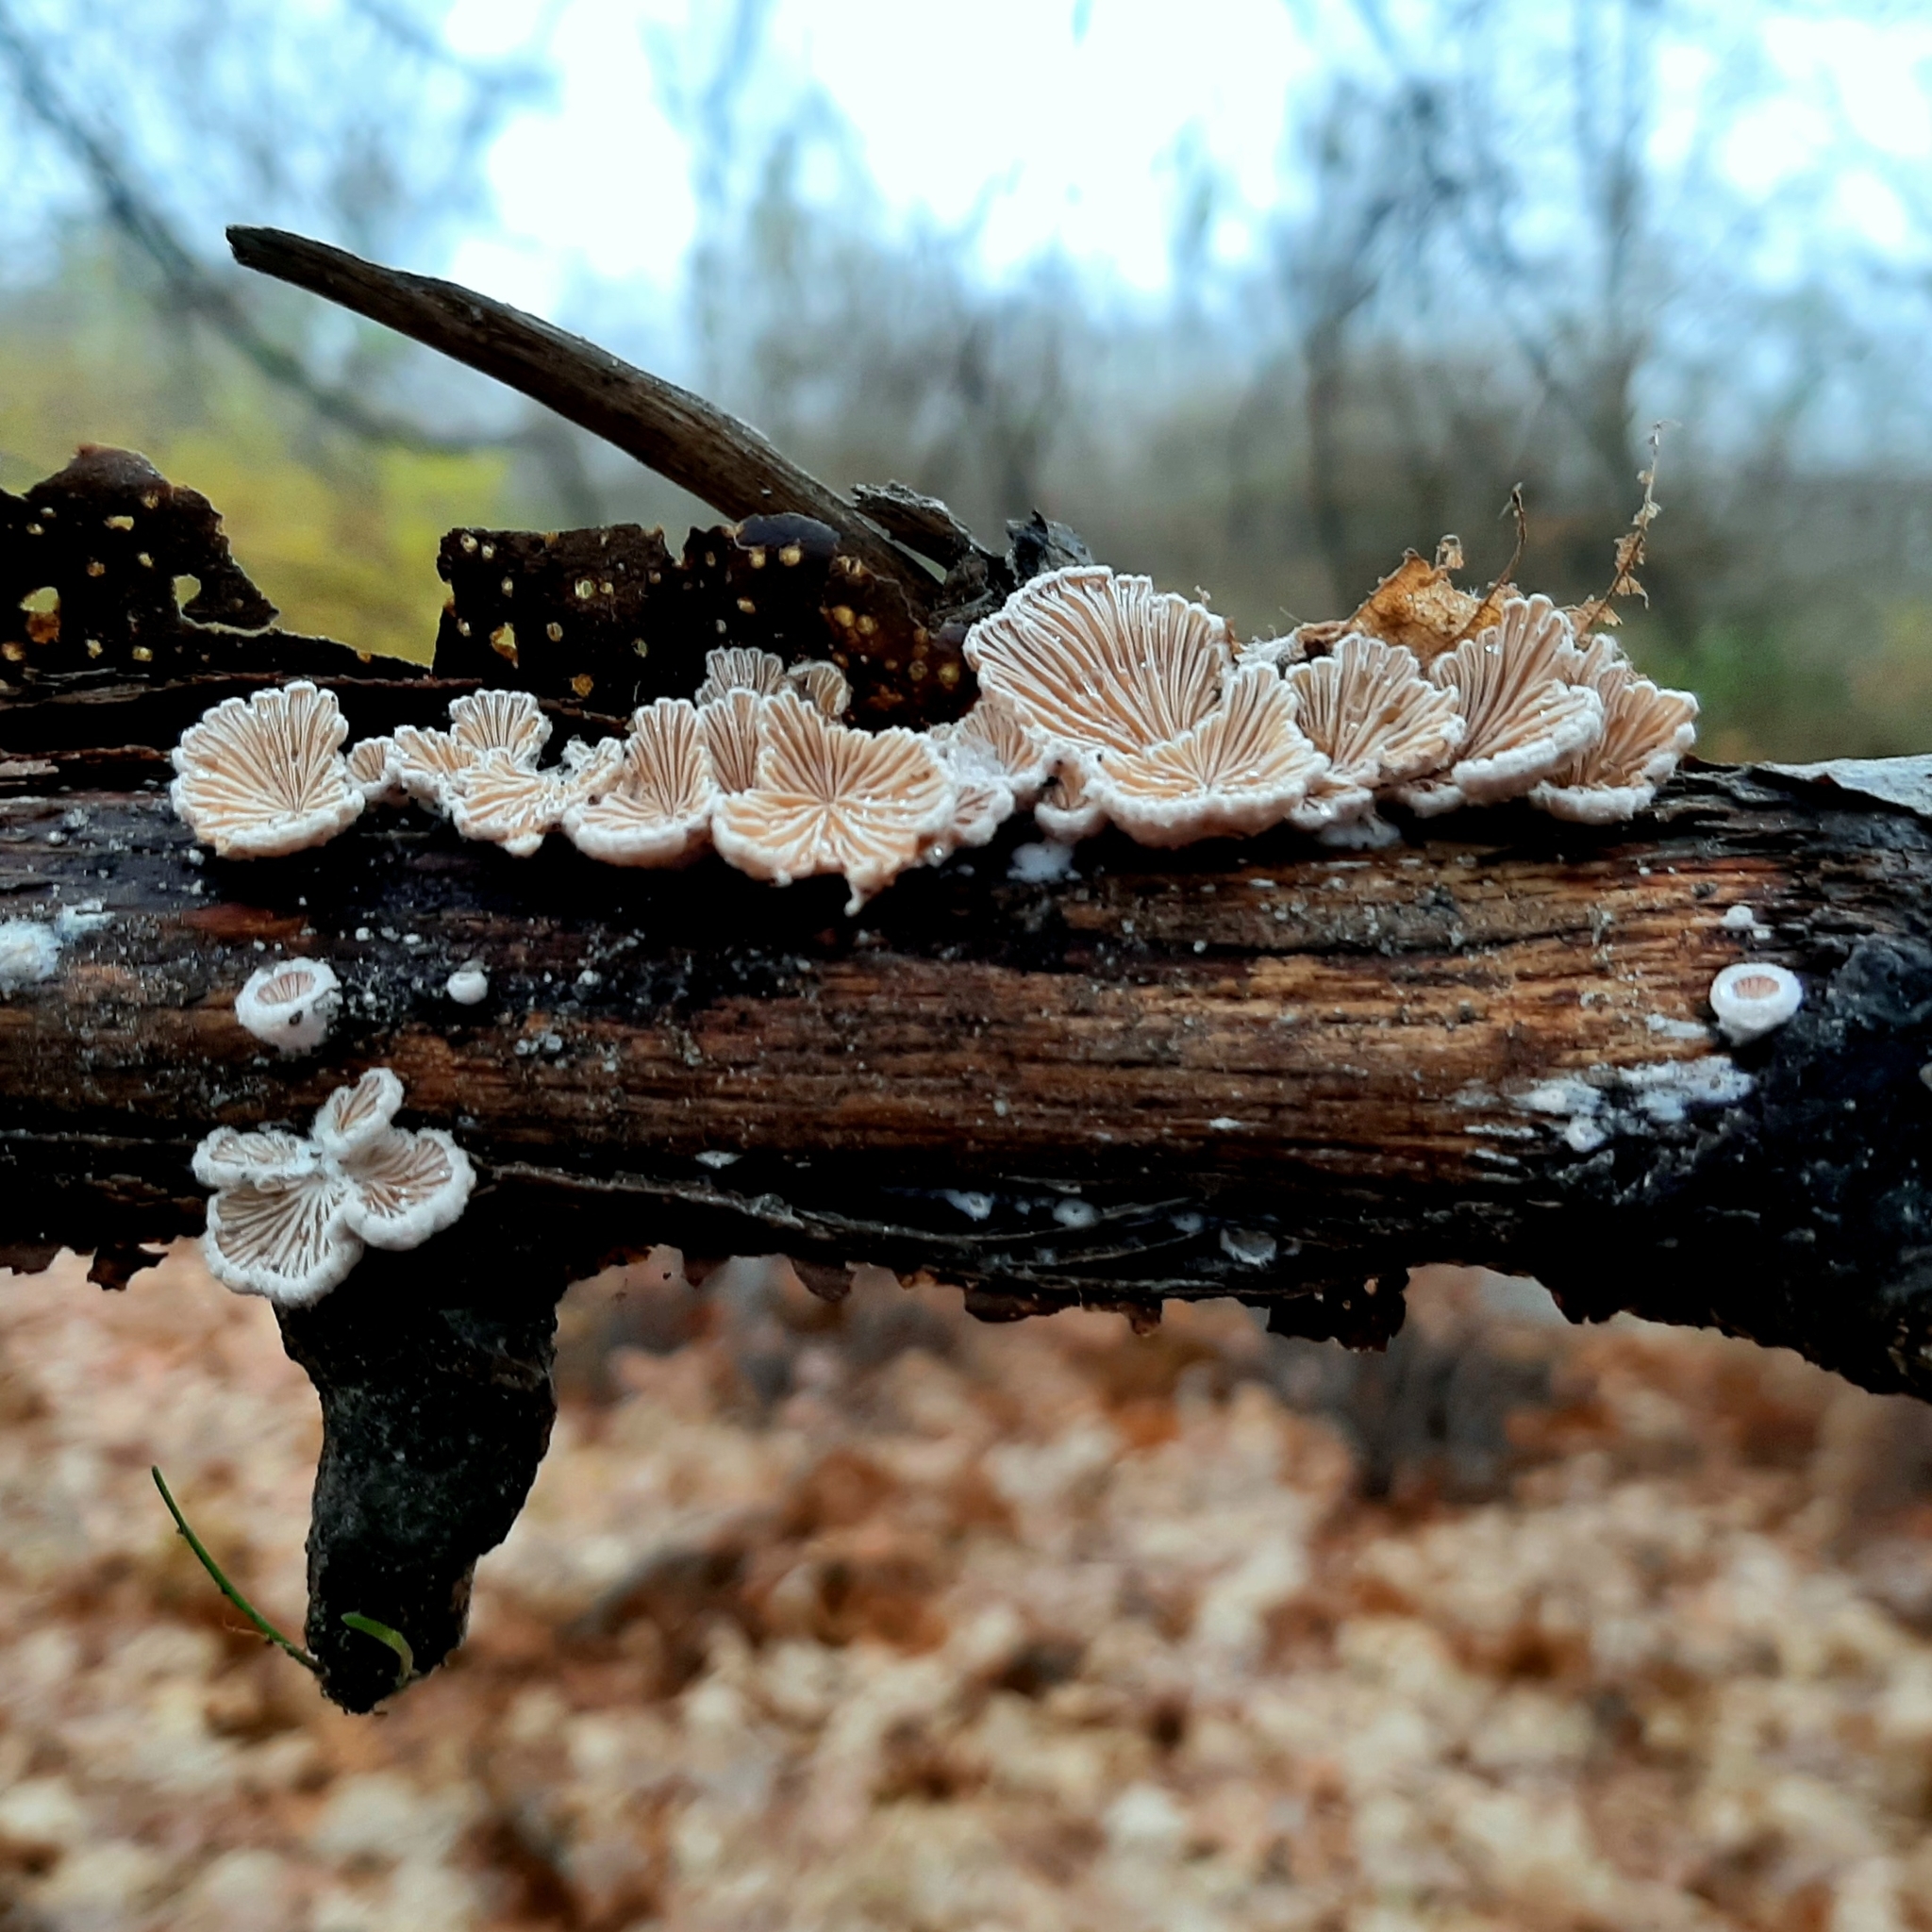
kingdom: Fungi
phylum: Basidiomycota
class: Agaricomycetes
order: Agaricales
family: Schizophyllaceae
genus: Schizophyllum
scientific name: Schizophyllum commune
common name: Common porecrust
